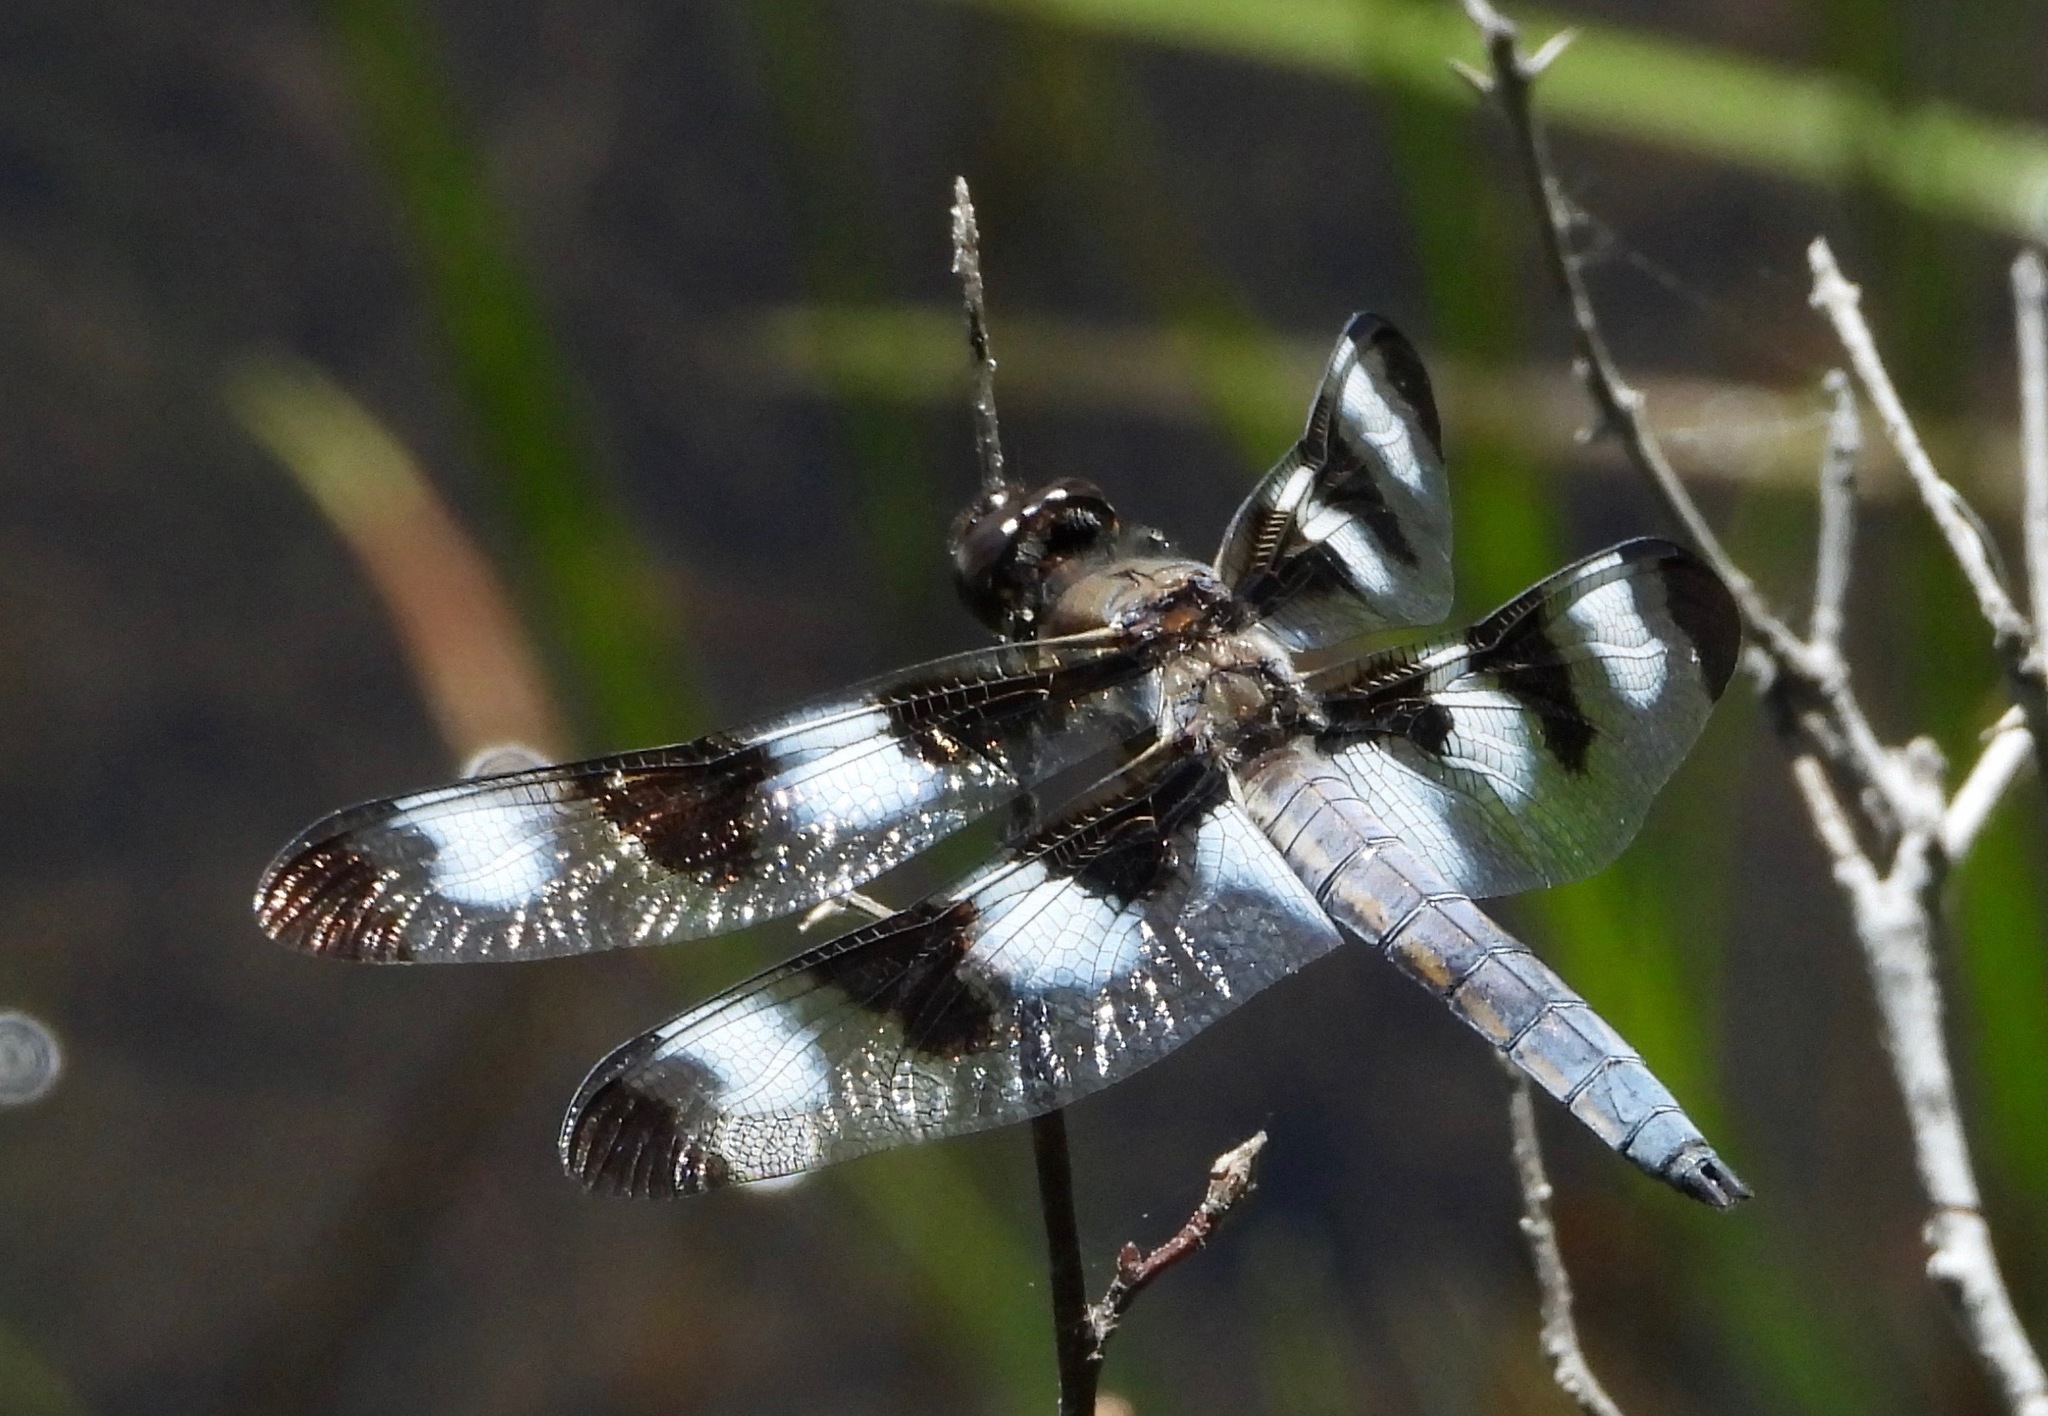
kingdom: Animalia
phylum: Arthropoda
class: Insecta
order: Odonata
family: Libellulidae
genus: Libellula
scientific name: Libellula pulchella
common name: Twelve-spotted skimmer
